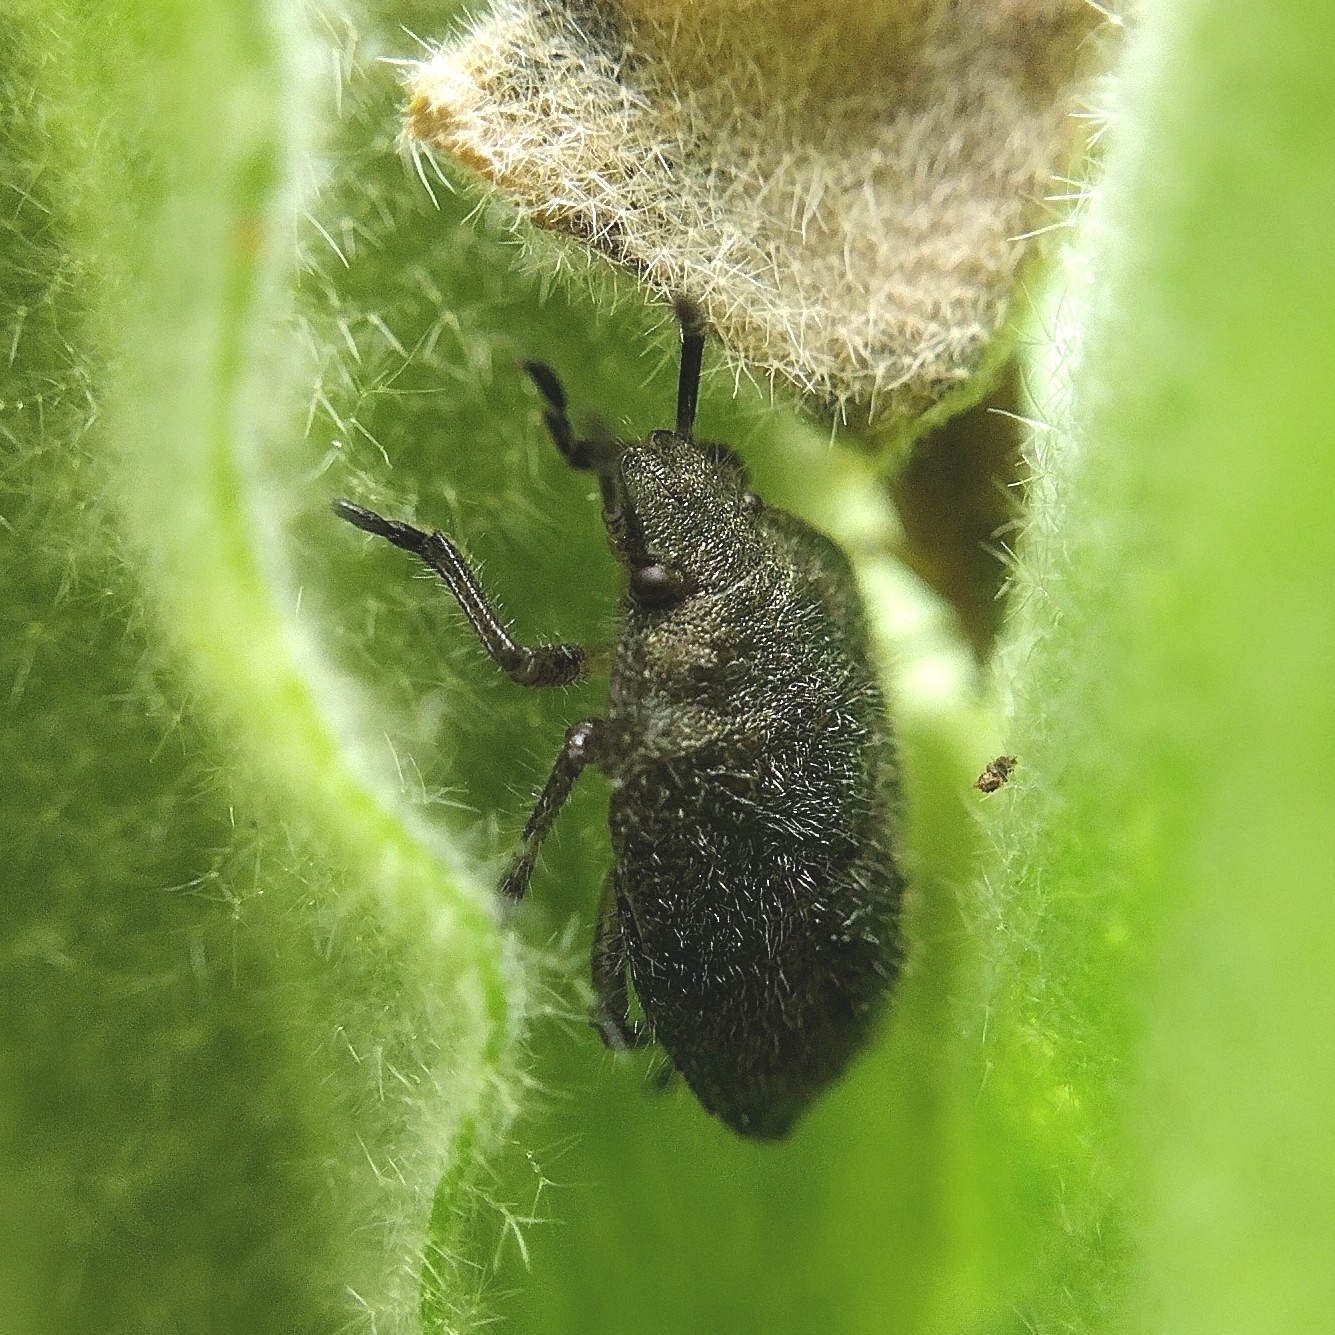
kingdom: Animalia
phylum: Arthropoda
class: Insecta
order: Hemiptera
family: Pentatomidae
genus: Dolycoris
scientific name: Dolycoris baccarum
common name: Sloe bug
